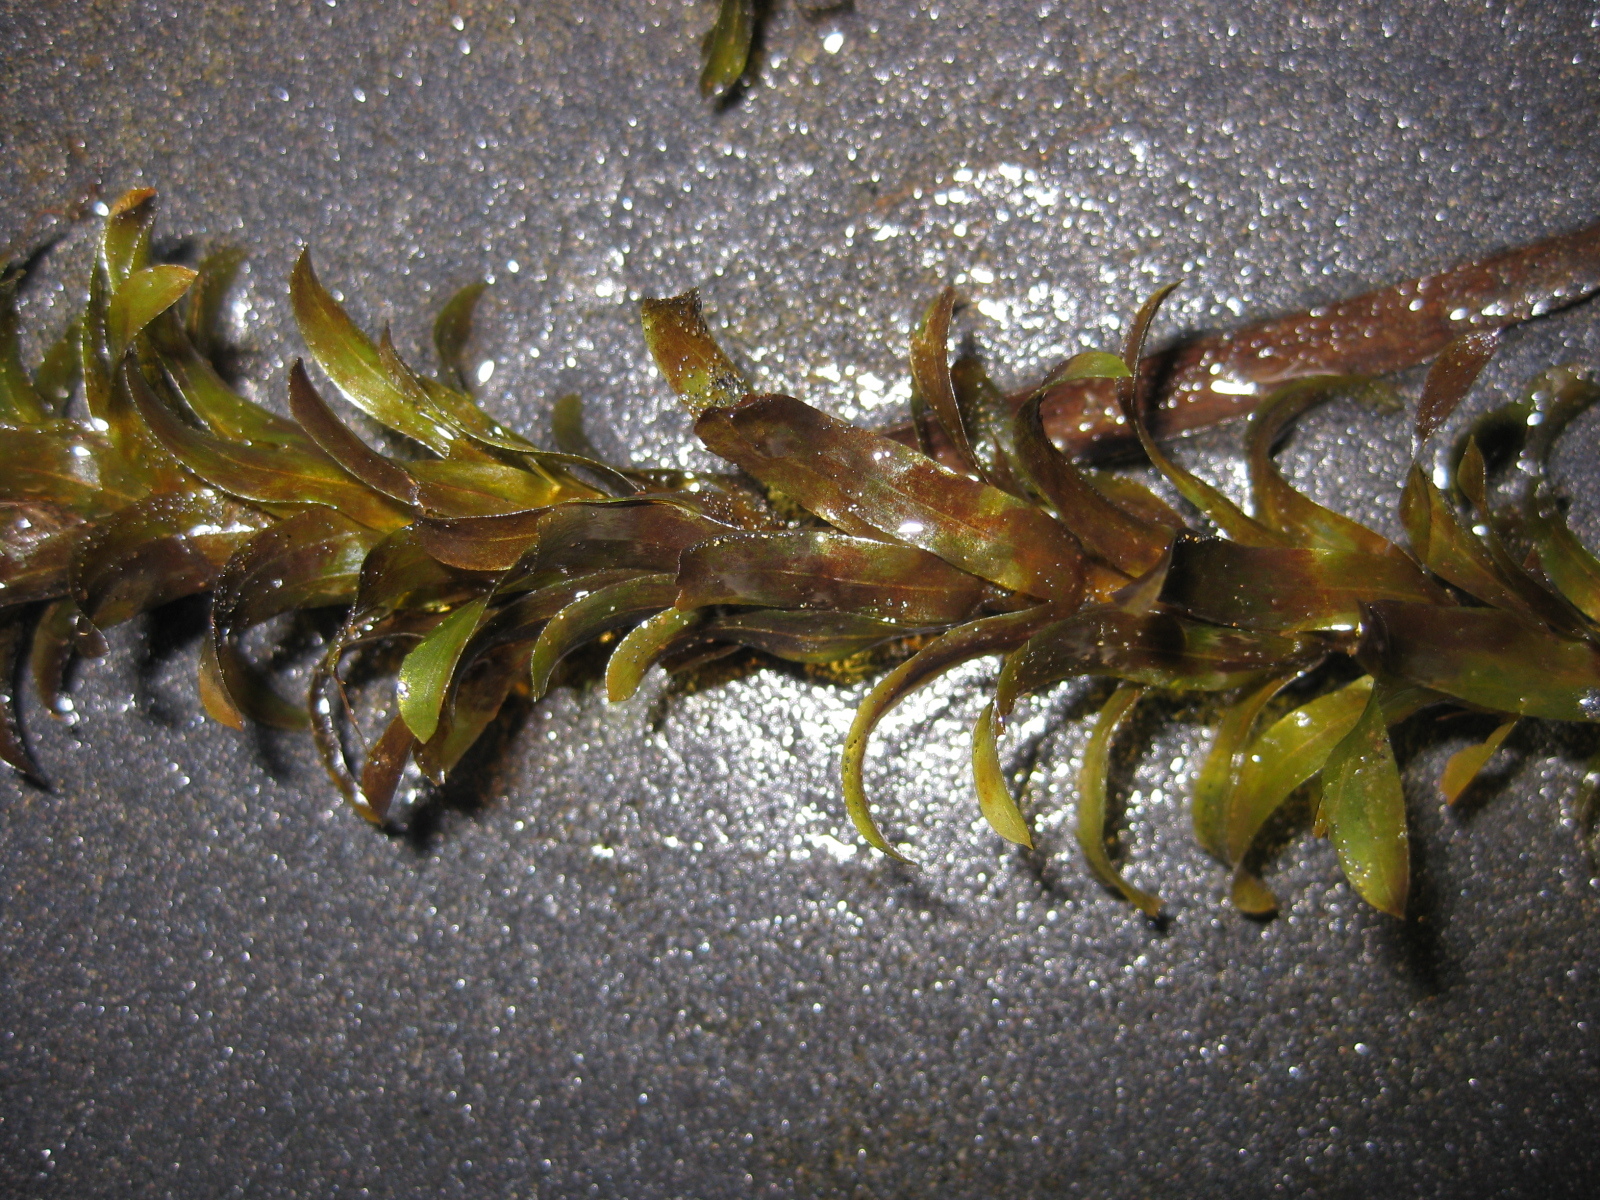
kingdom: Plantae
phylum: Tracheophyta
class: Liliopsida
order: Alismatales
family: Hydrocharitaceae
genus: Elodea
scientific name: Elodea densa
